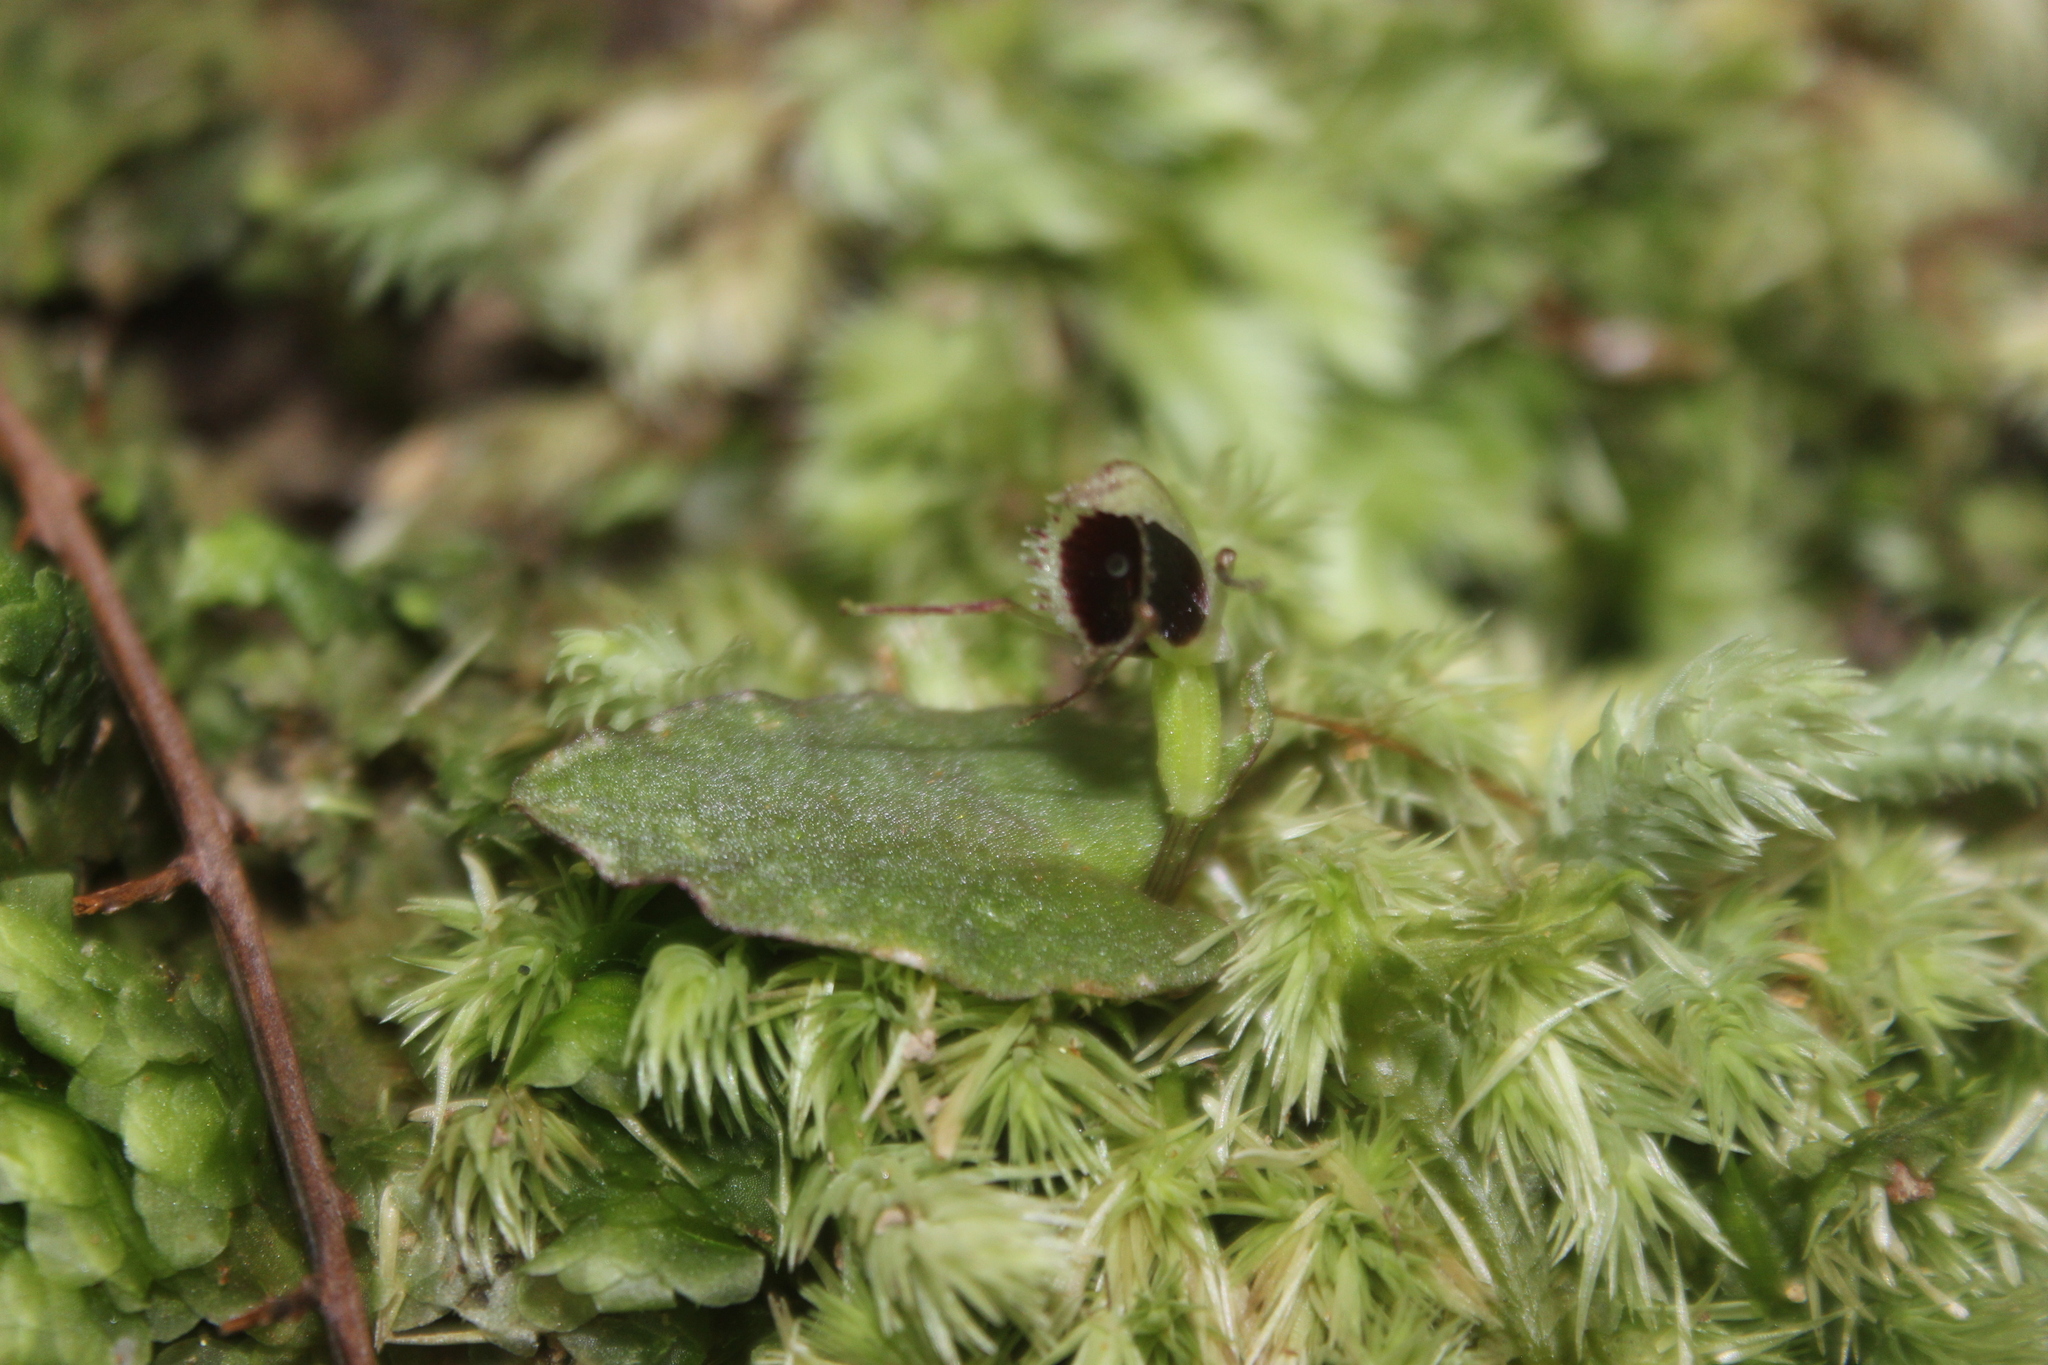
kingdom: Plantae
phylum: Tracheophyta
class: Liliopsida
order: Asparagales
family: Orchidaceae
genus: Corybas
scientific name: Corybas oblongus
